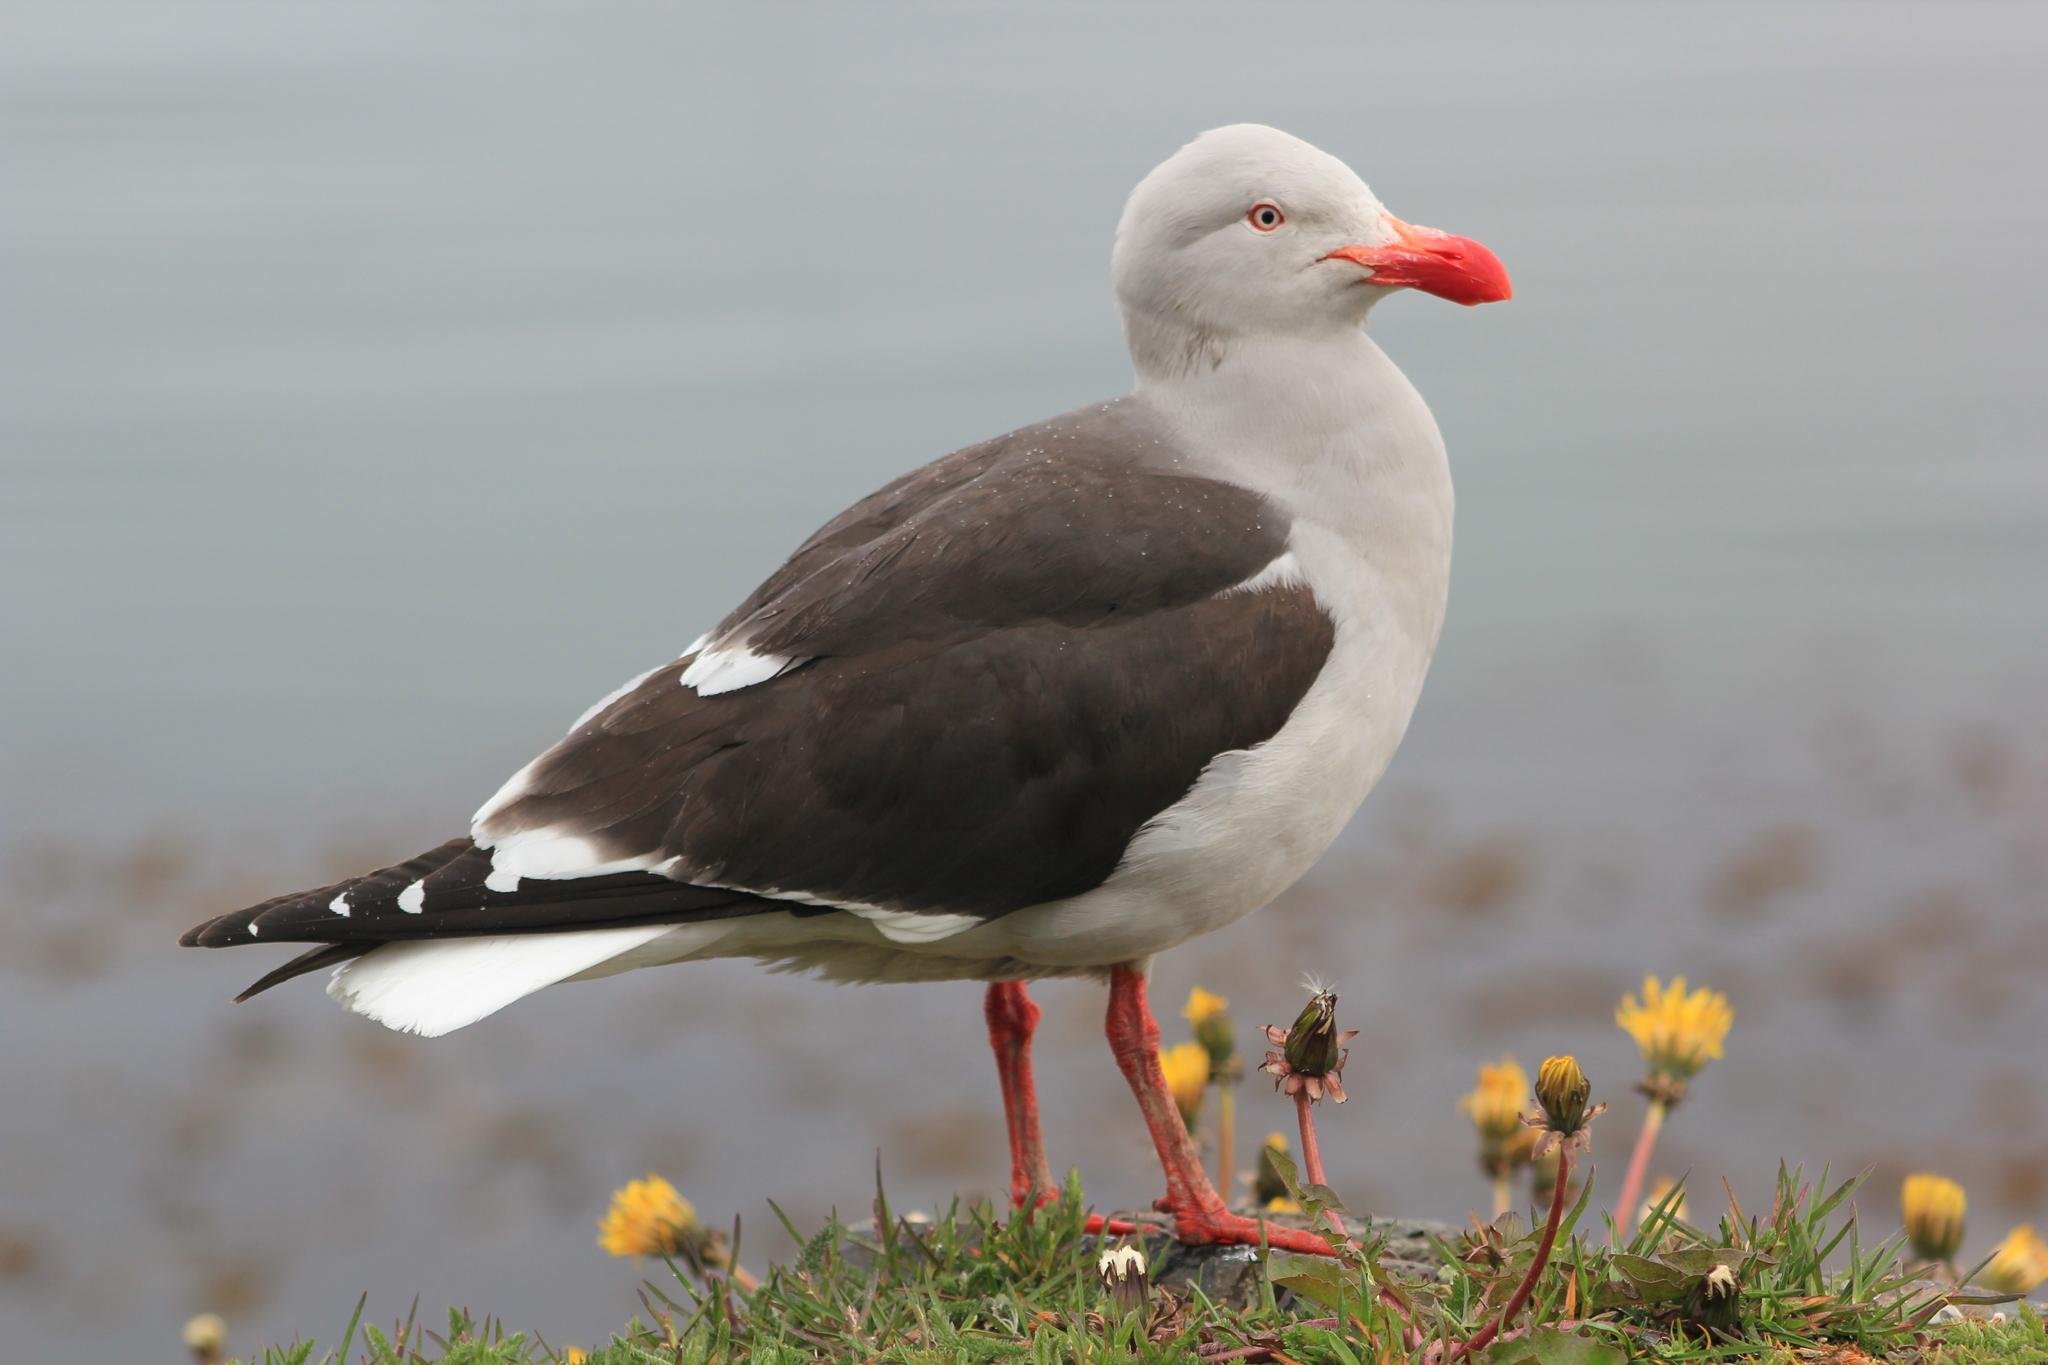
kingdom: Animalia
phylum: Chordata
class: Aves
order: Charadriiformes
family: Laridae
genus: Leucophaeus
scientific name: Leucophaeus scoresbii
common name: Dolphin gull
